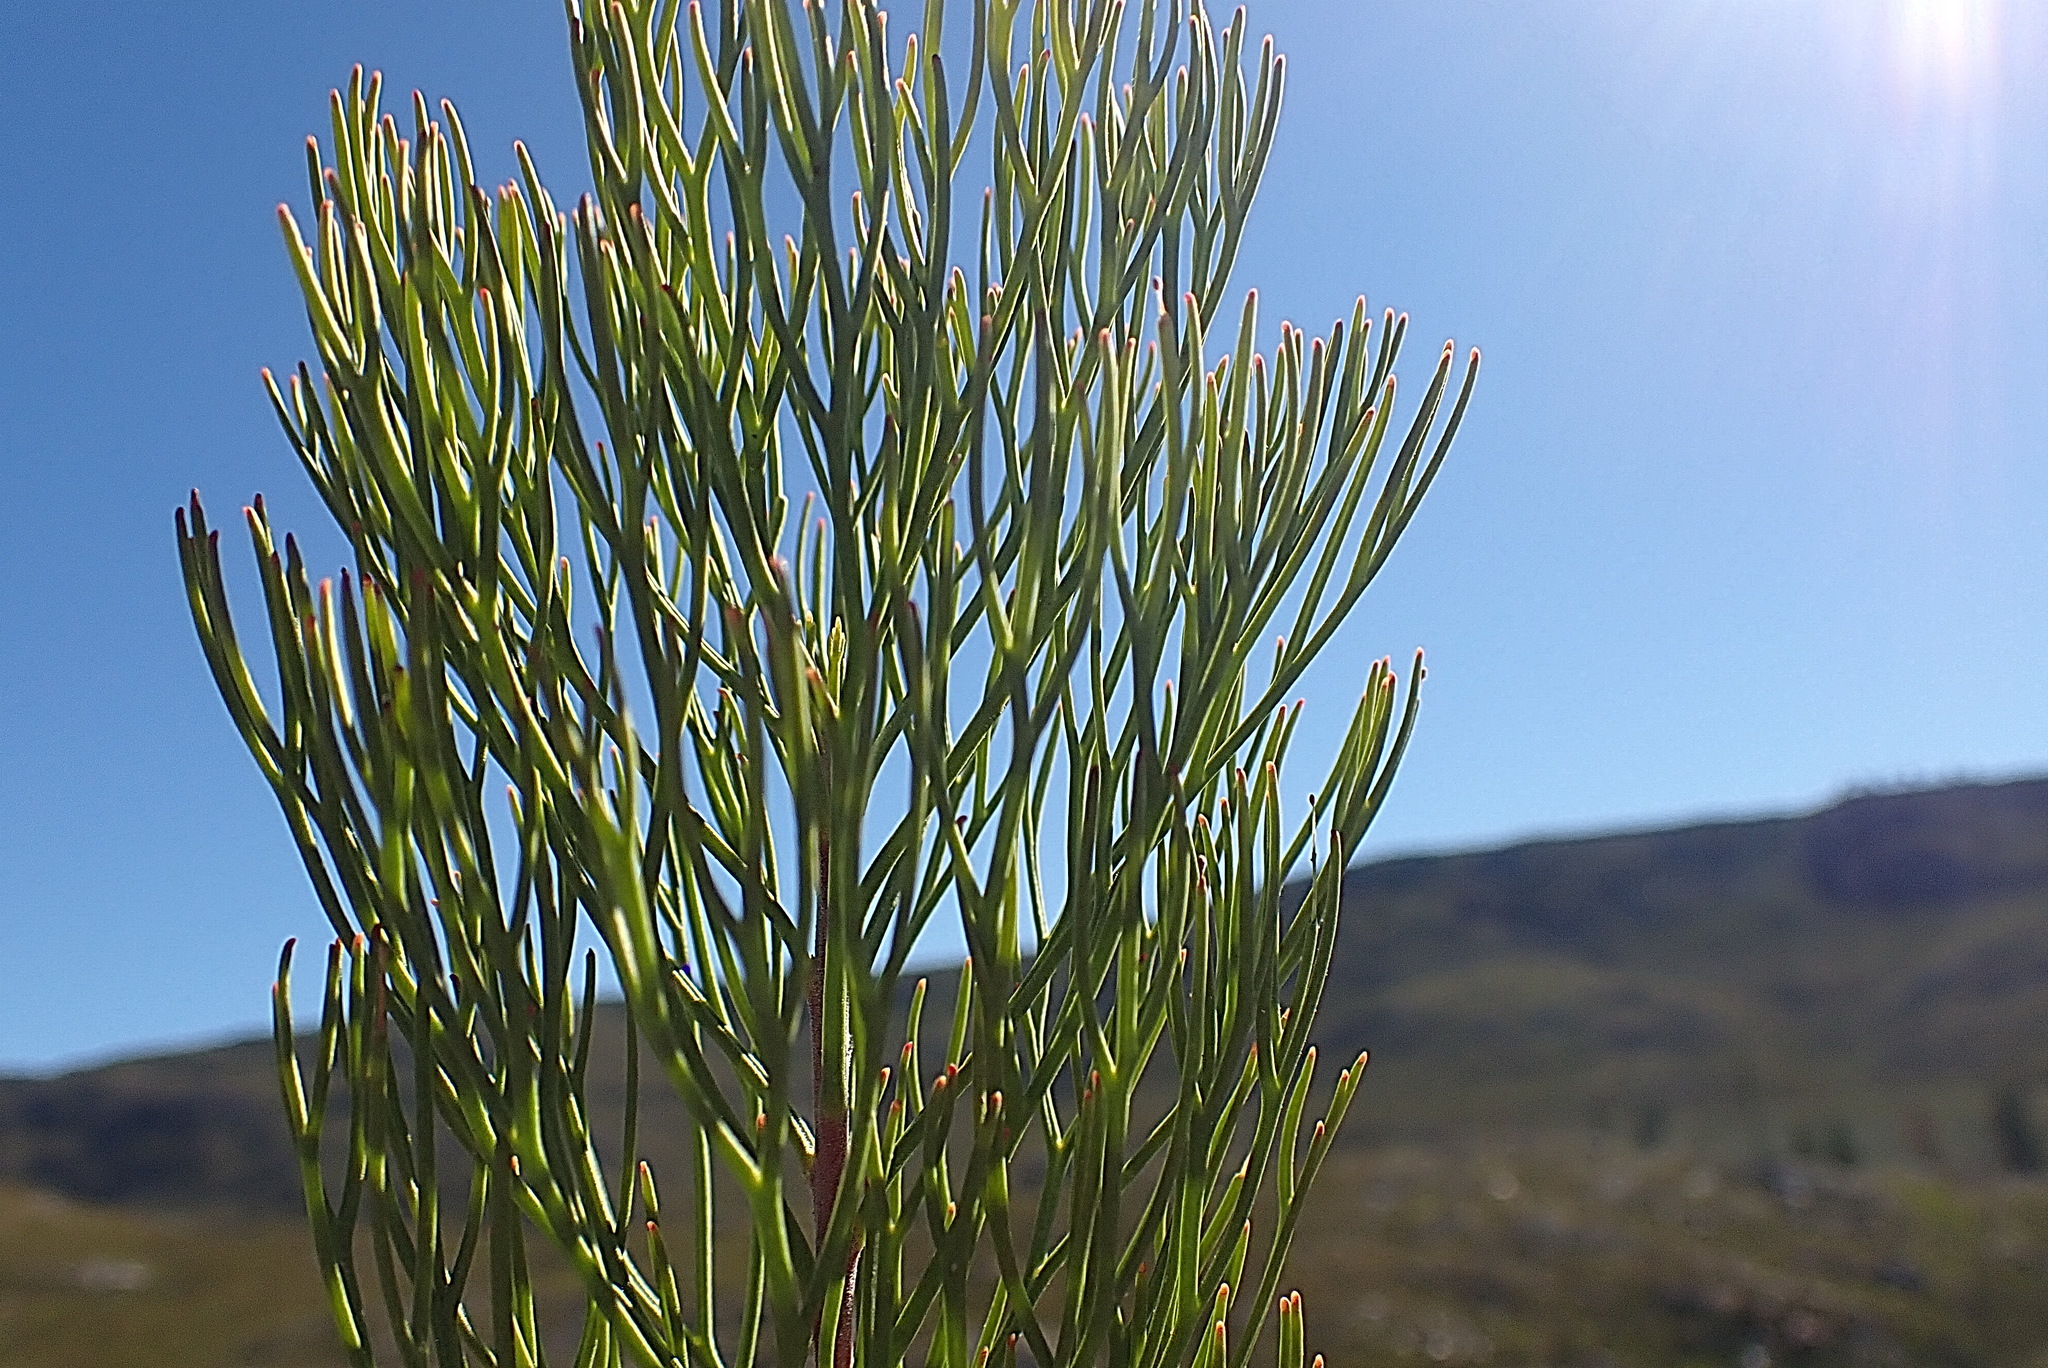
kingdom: Plantae
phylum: Tracheophyta
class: Magnoliopsida
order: Proteales
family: Proteaceae
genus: Paranomus
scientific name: Paranomus dregei
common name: Scented sceptre
